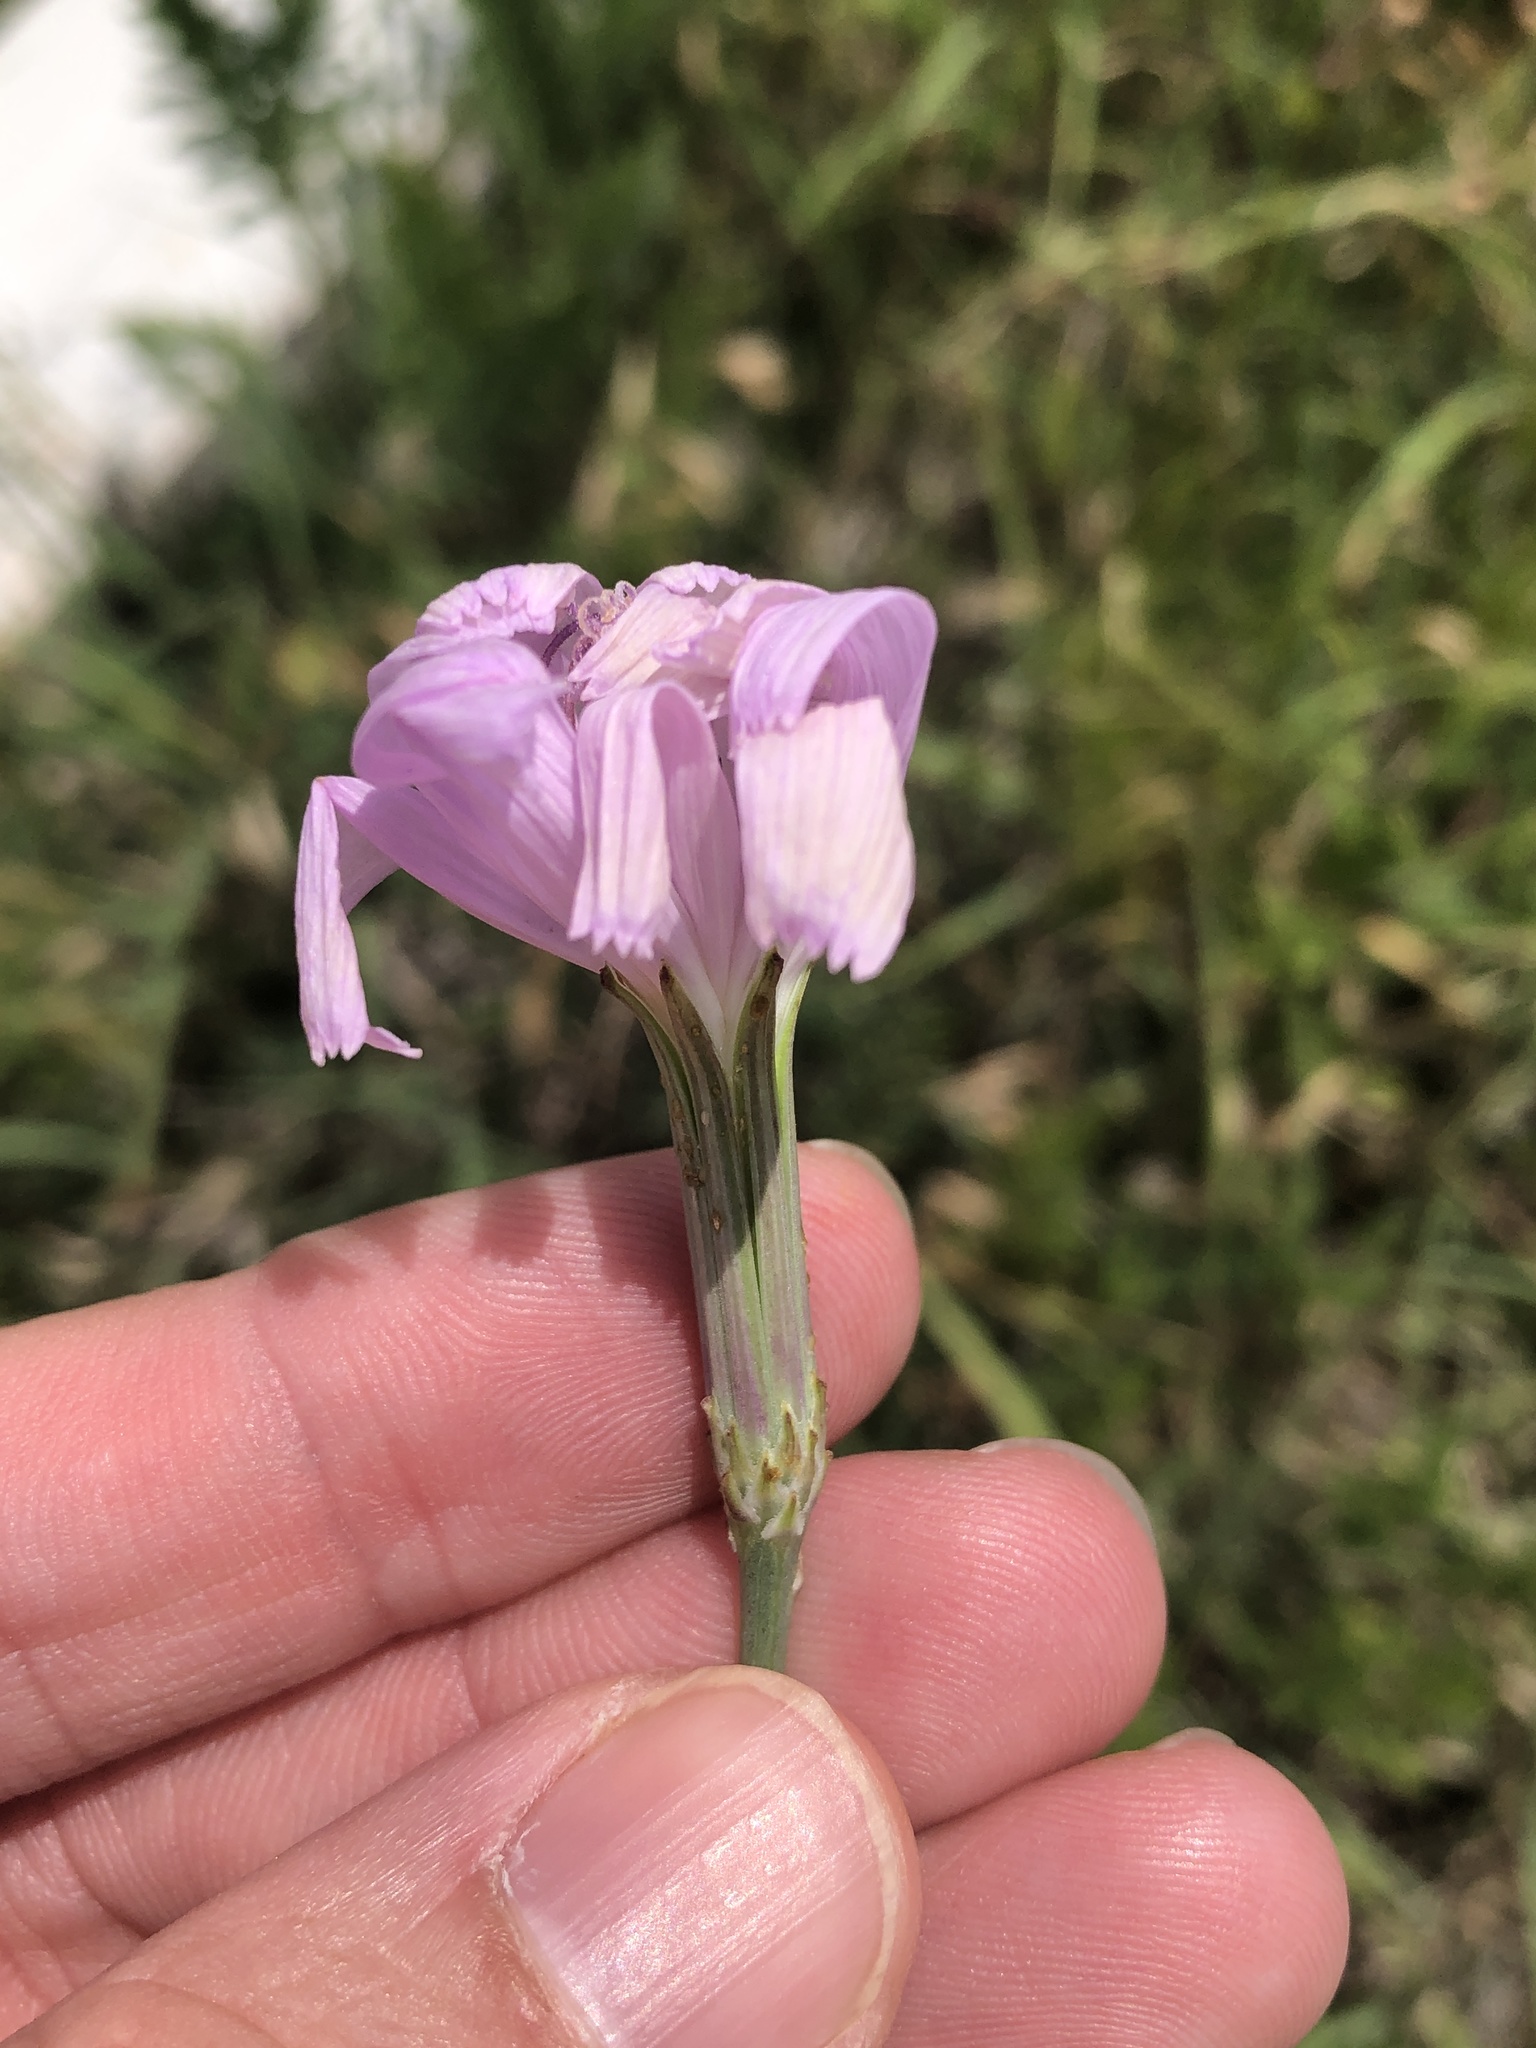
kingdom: Plantae
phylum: Tracheophyta
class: Magnoliopsida
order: Asterales
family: Asteraceae
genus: Lygodesmia
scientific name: Lygodesmia texana
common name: Texas skeleton-plant
